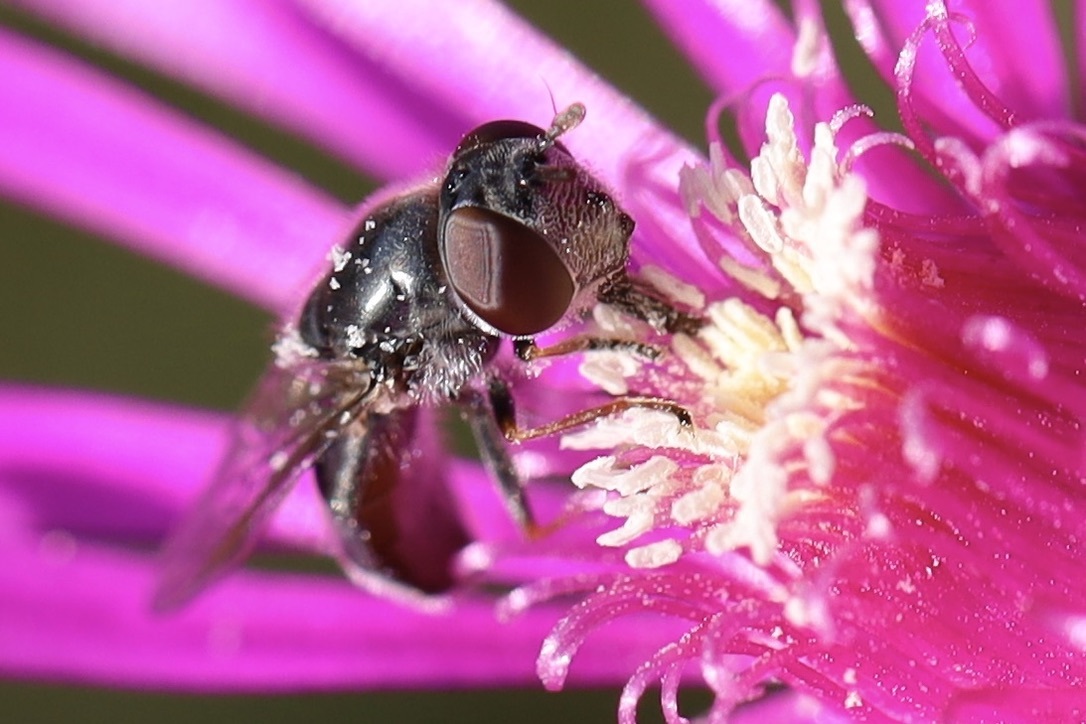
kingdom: Animalia
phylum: Arthropoda
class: Insecta
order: Diptera
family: Syrphidae
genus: Platycheirus
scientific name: Platycheirus stegnus
